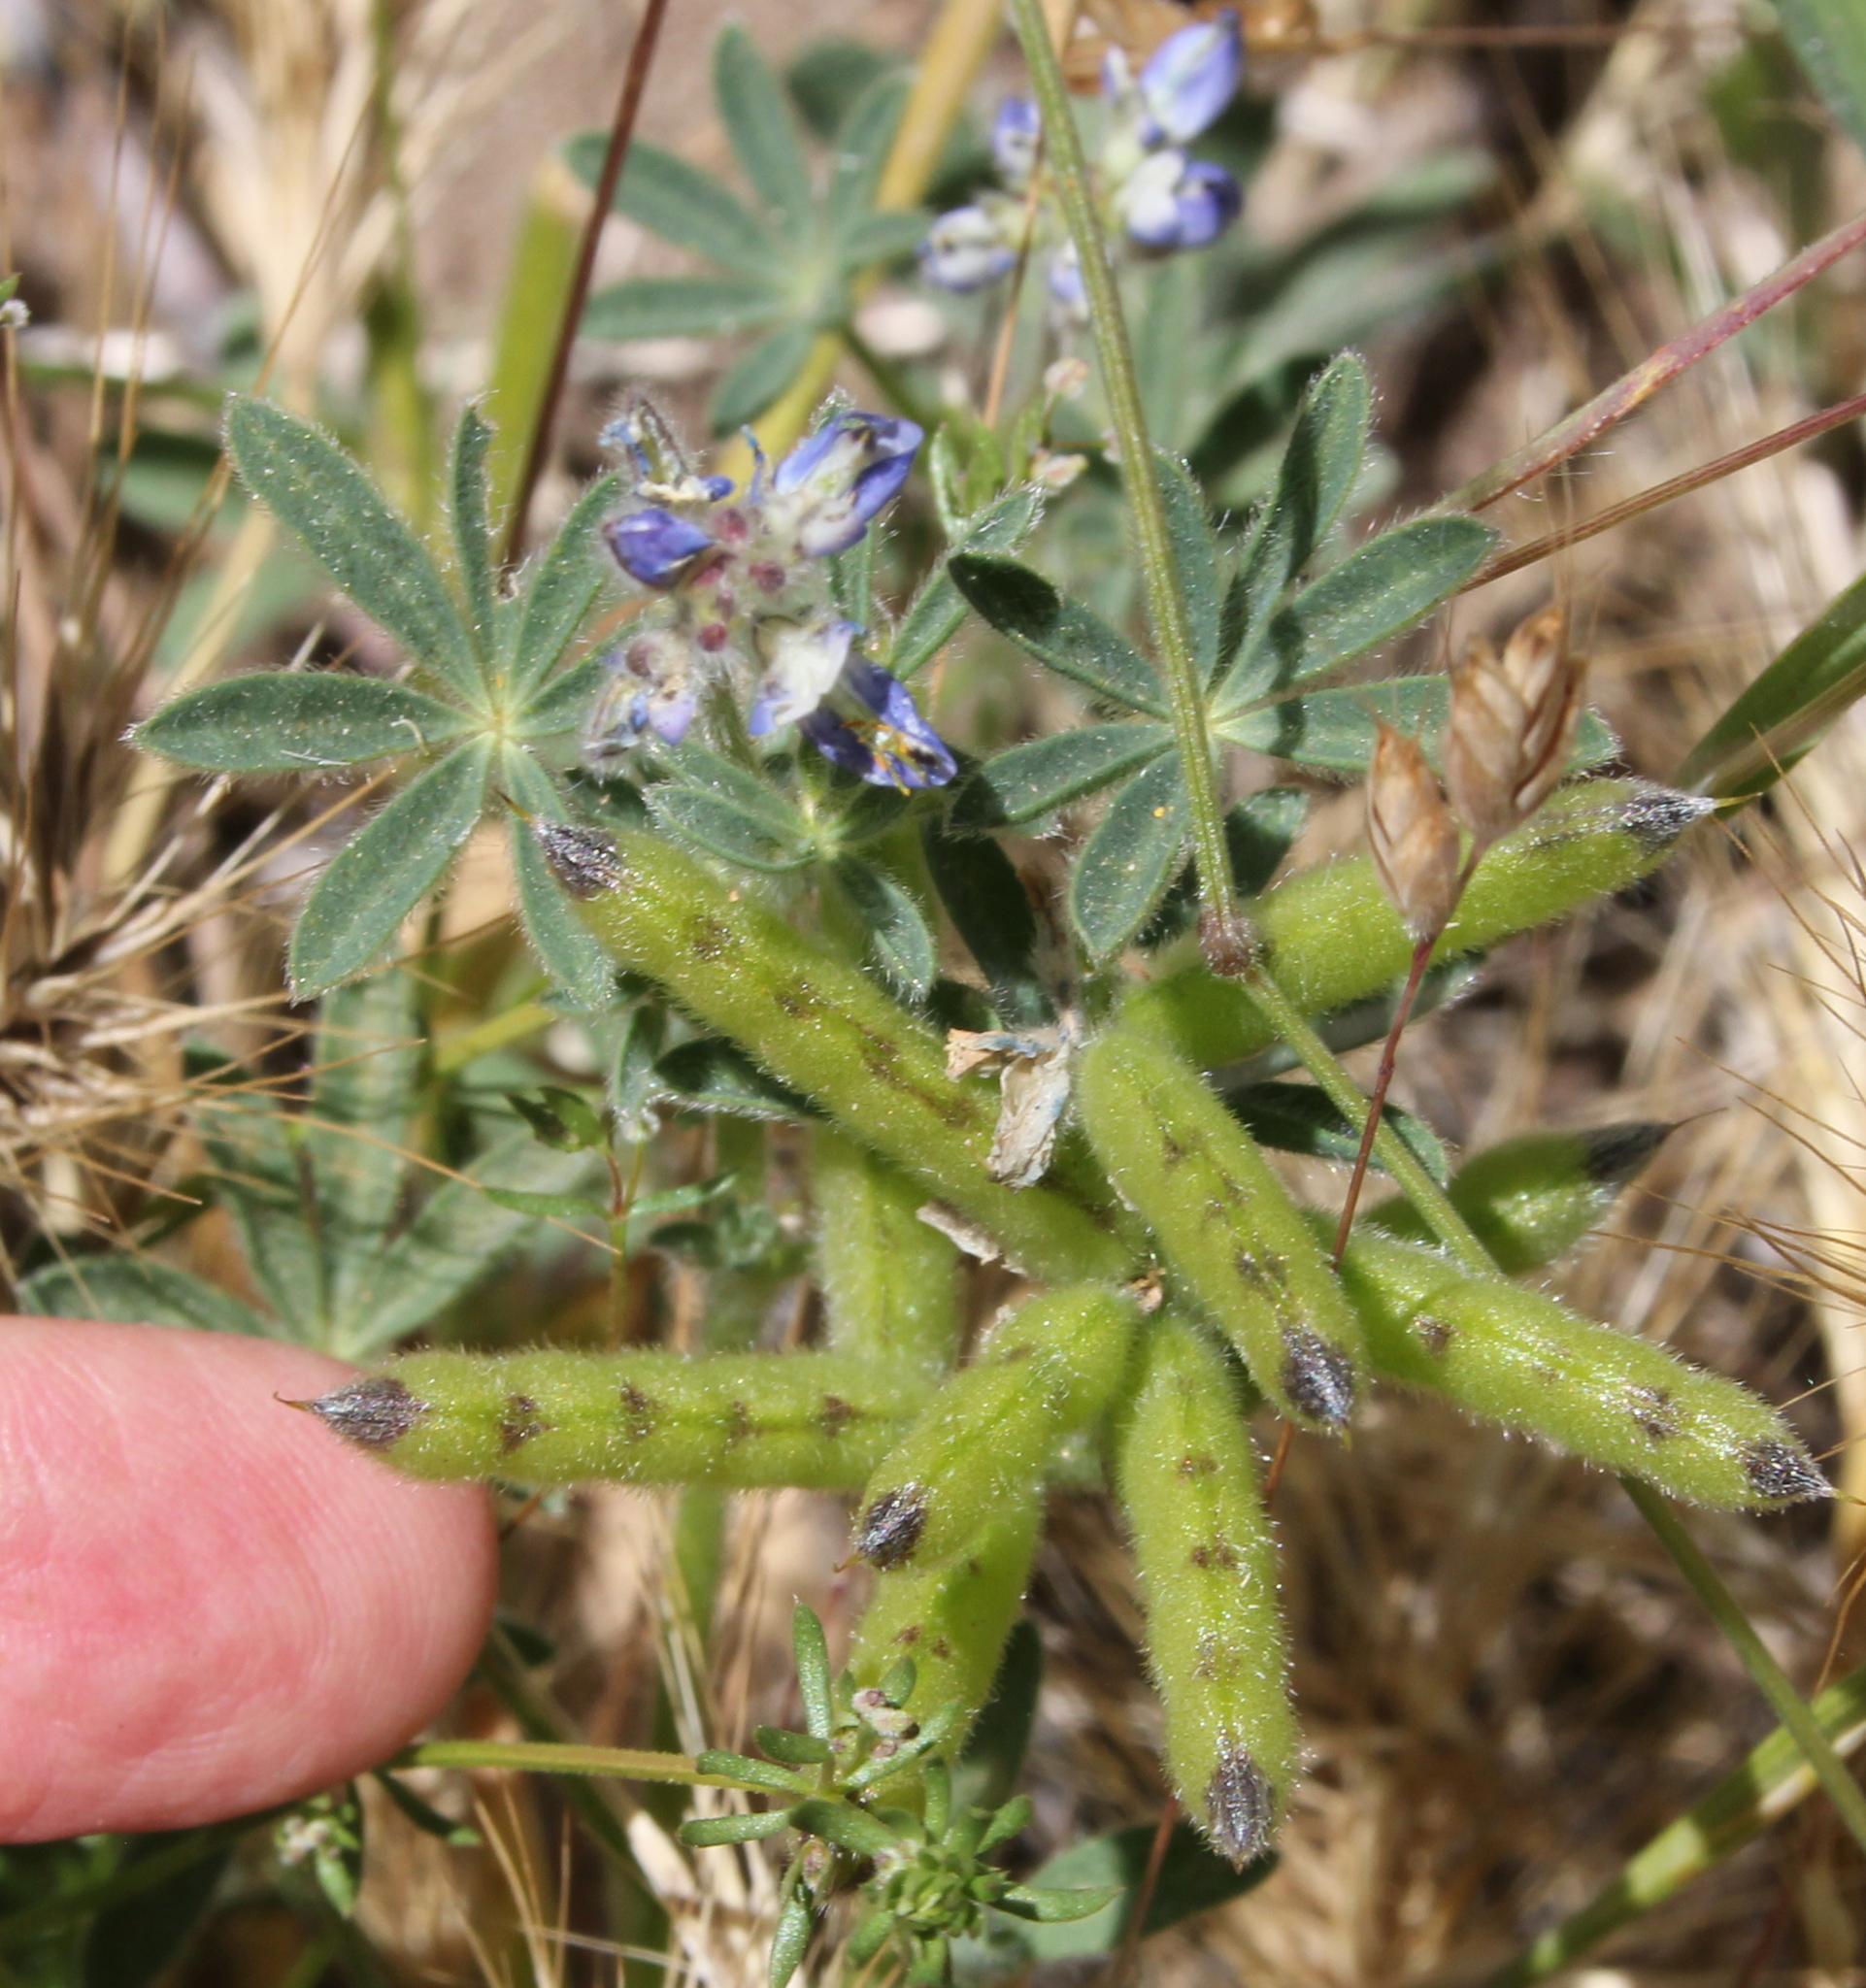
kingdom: Plantae
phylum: Tracheophyta
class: Magnoliopsida
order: Fabales
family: Fabaceae
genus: Lupinus
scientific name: Lupinus bicolor
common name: Miniature lupine
